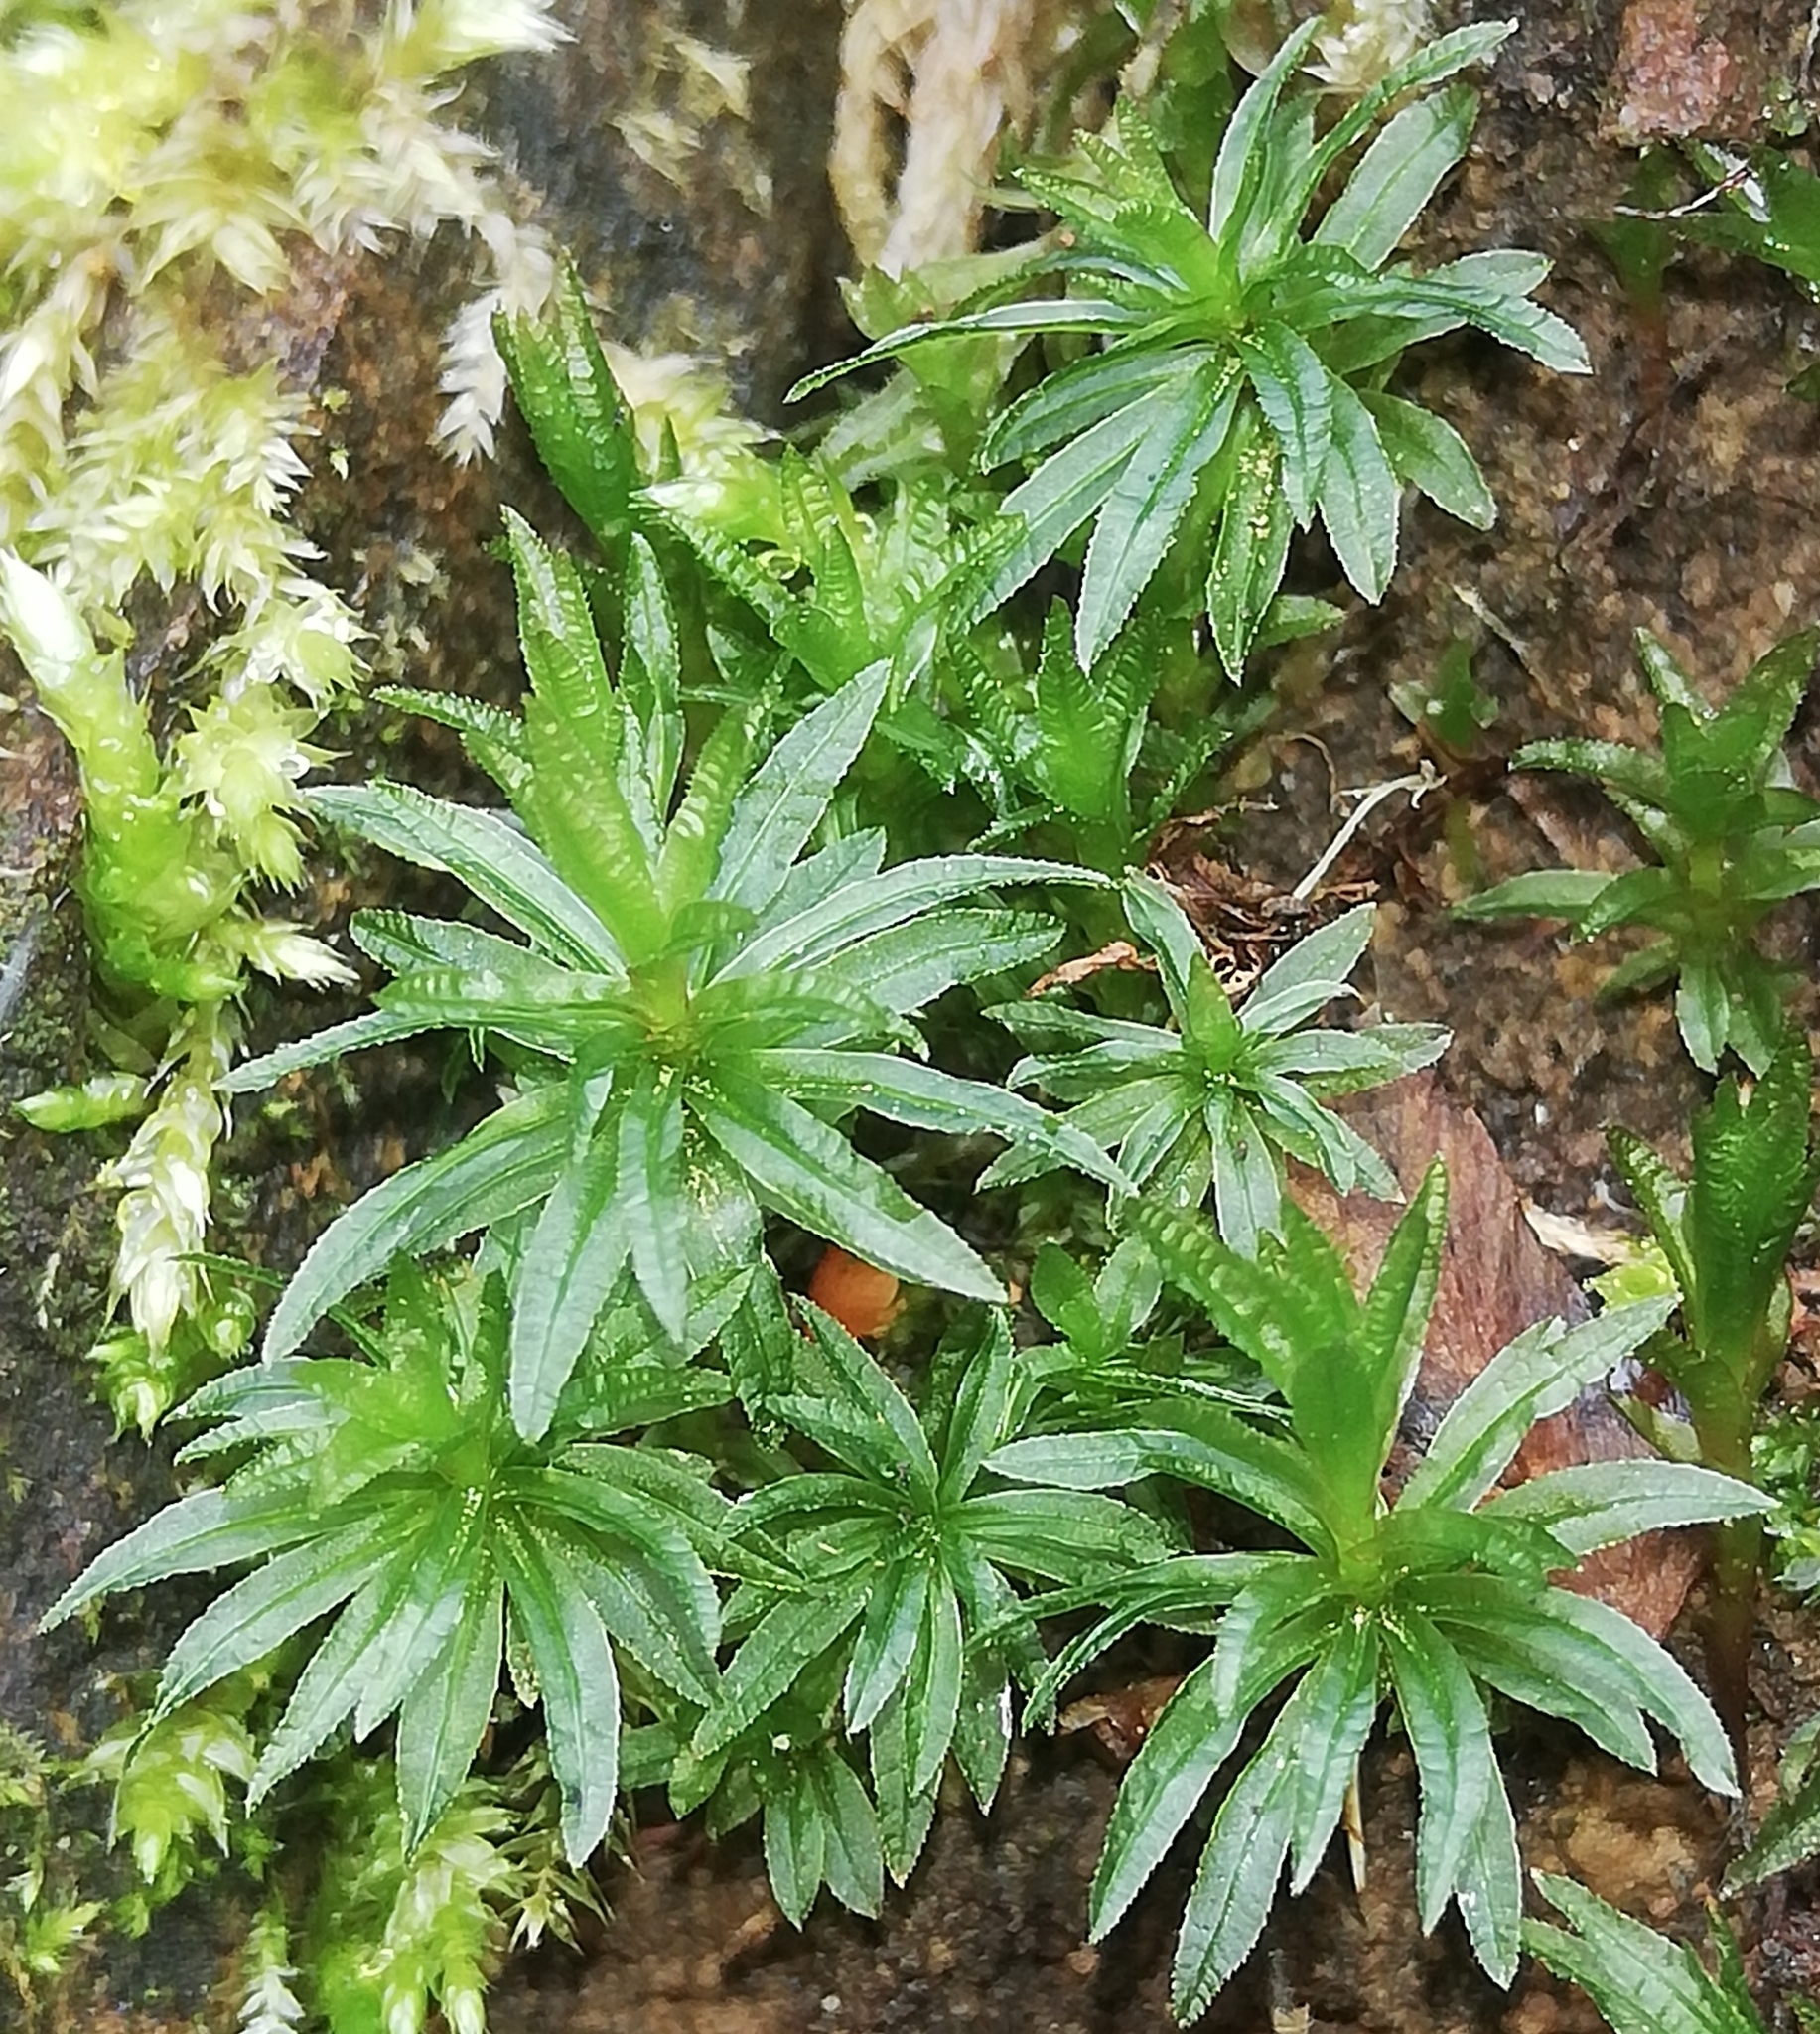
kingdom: Plantae
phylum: Bryophyta
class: Polytrichopsida
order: Polytrichales
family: Polytrichaceae
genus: Atrichum
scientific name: Atrichum undulatum
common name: Common smoothcap
